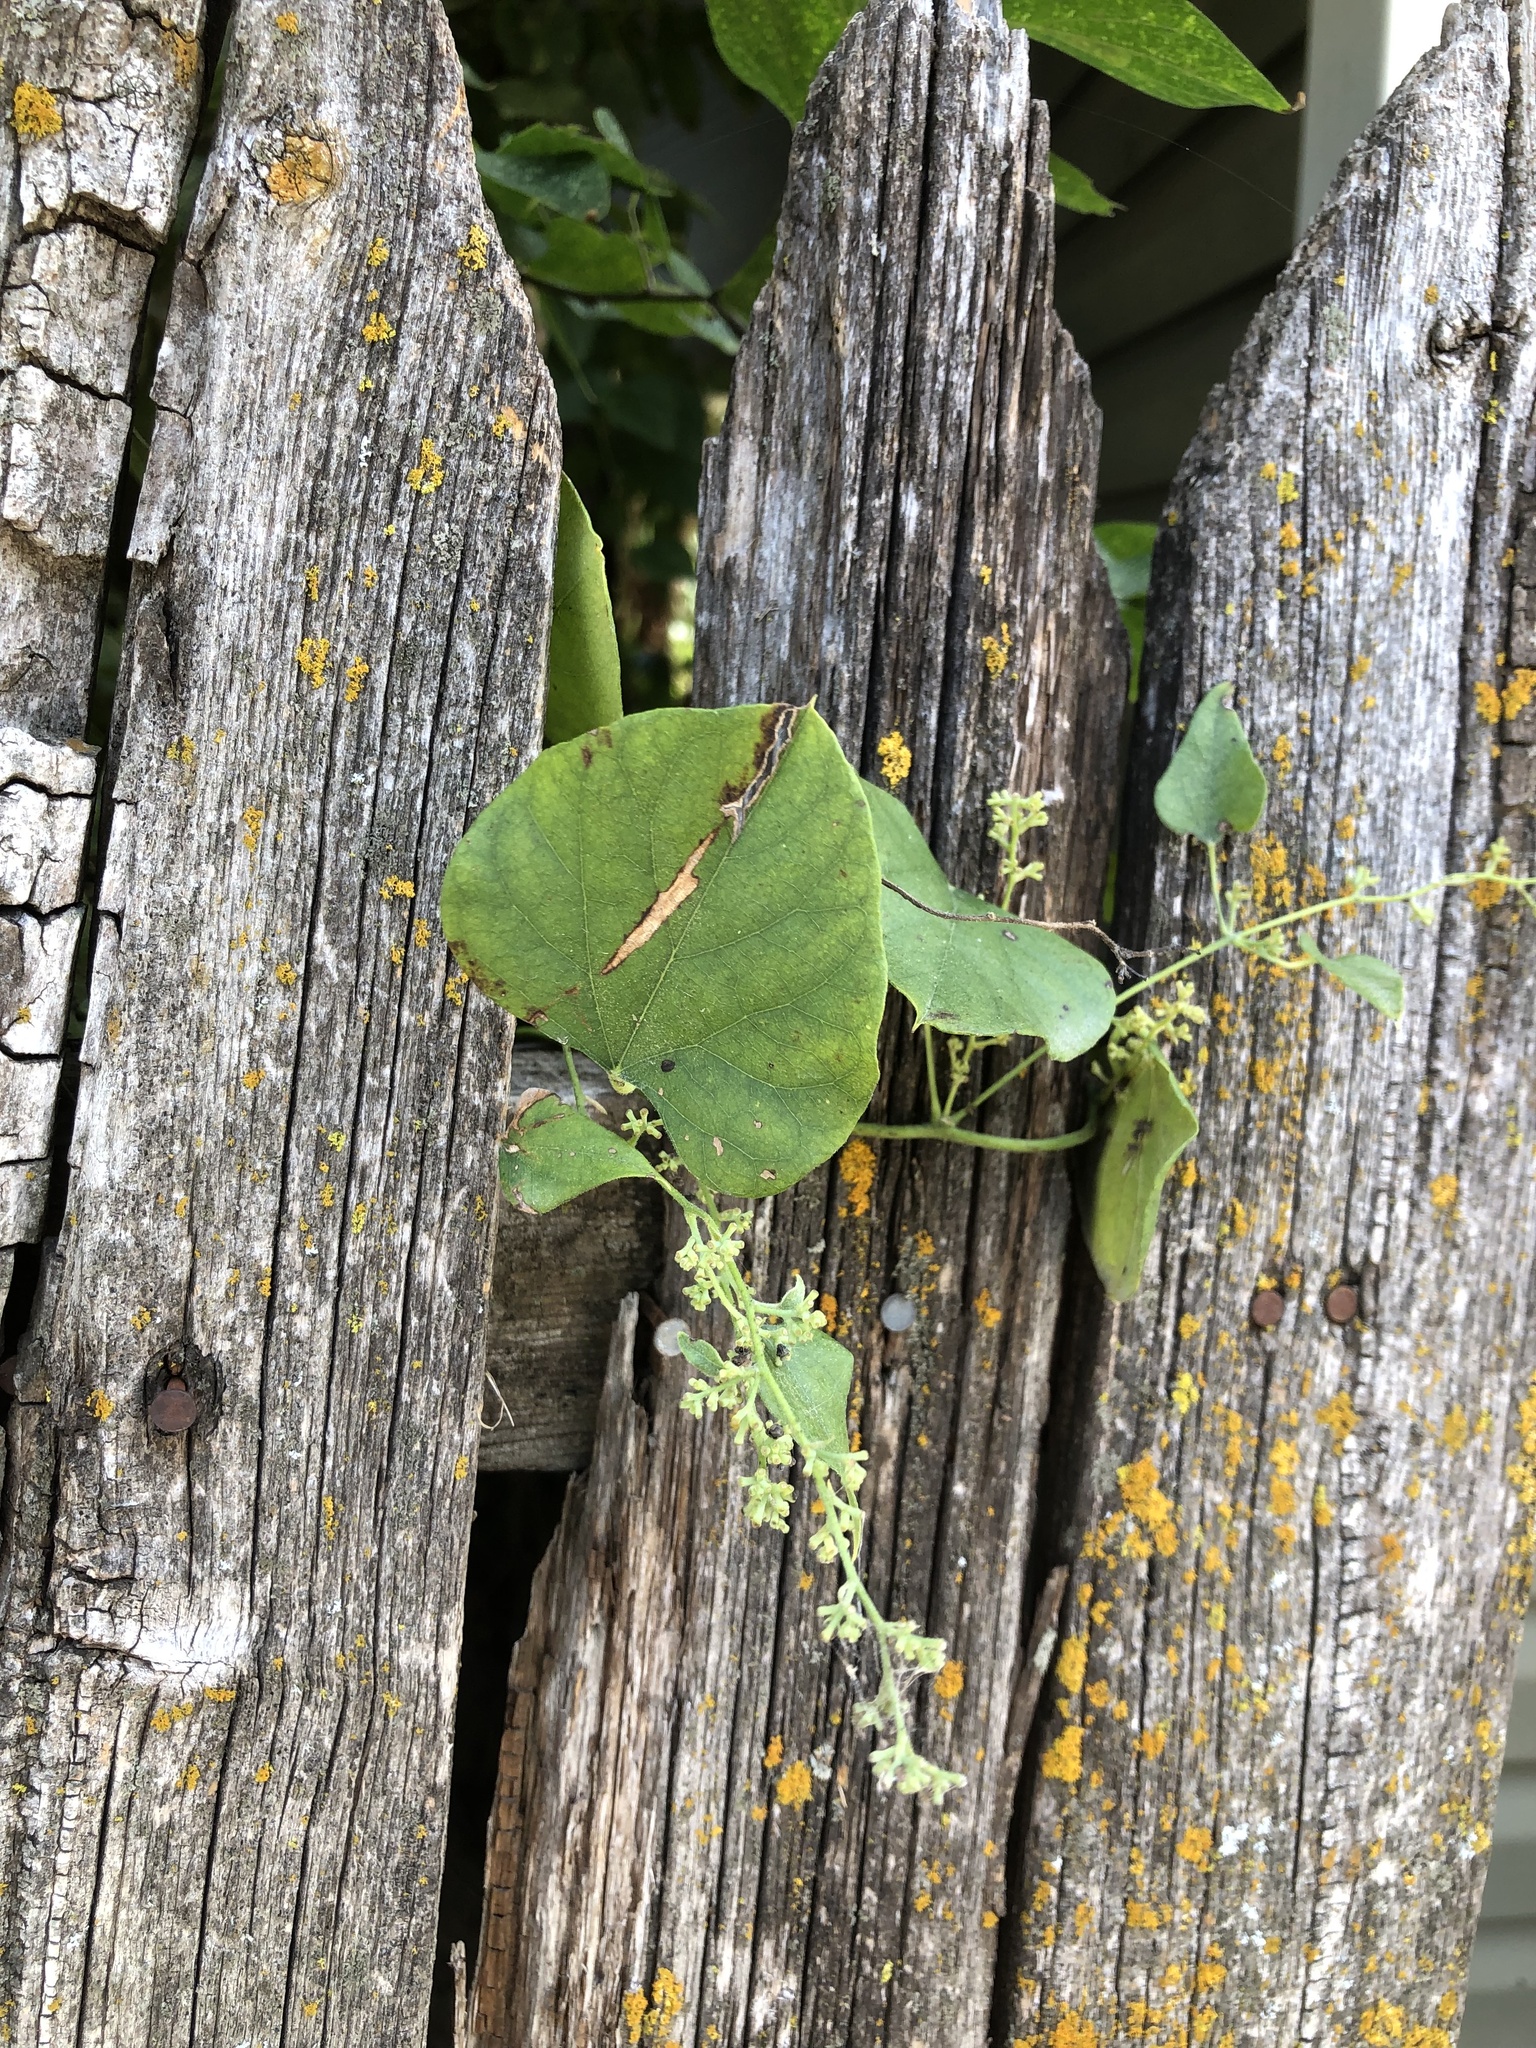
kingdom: Plantae
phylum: Tracheophyta
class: Magnoliopsida
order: Ranunculales
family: Menispermaceae
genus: Cocculus
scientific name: Cocculus carolinus
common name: Carolina moonseed
